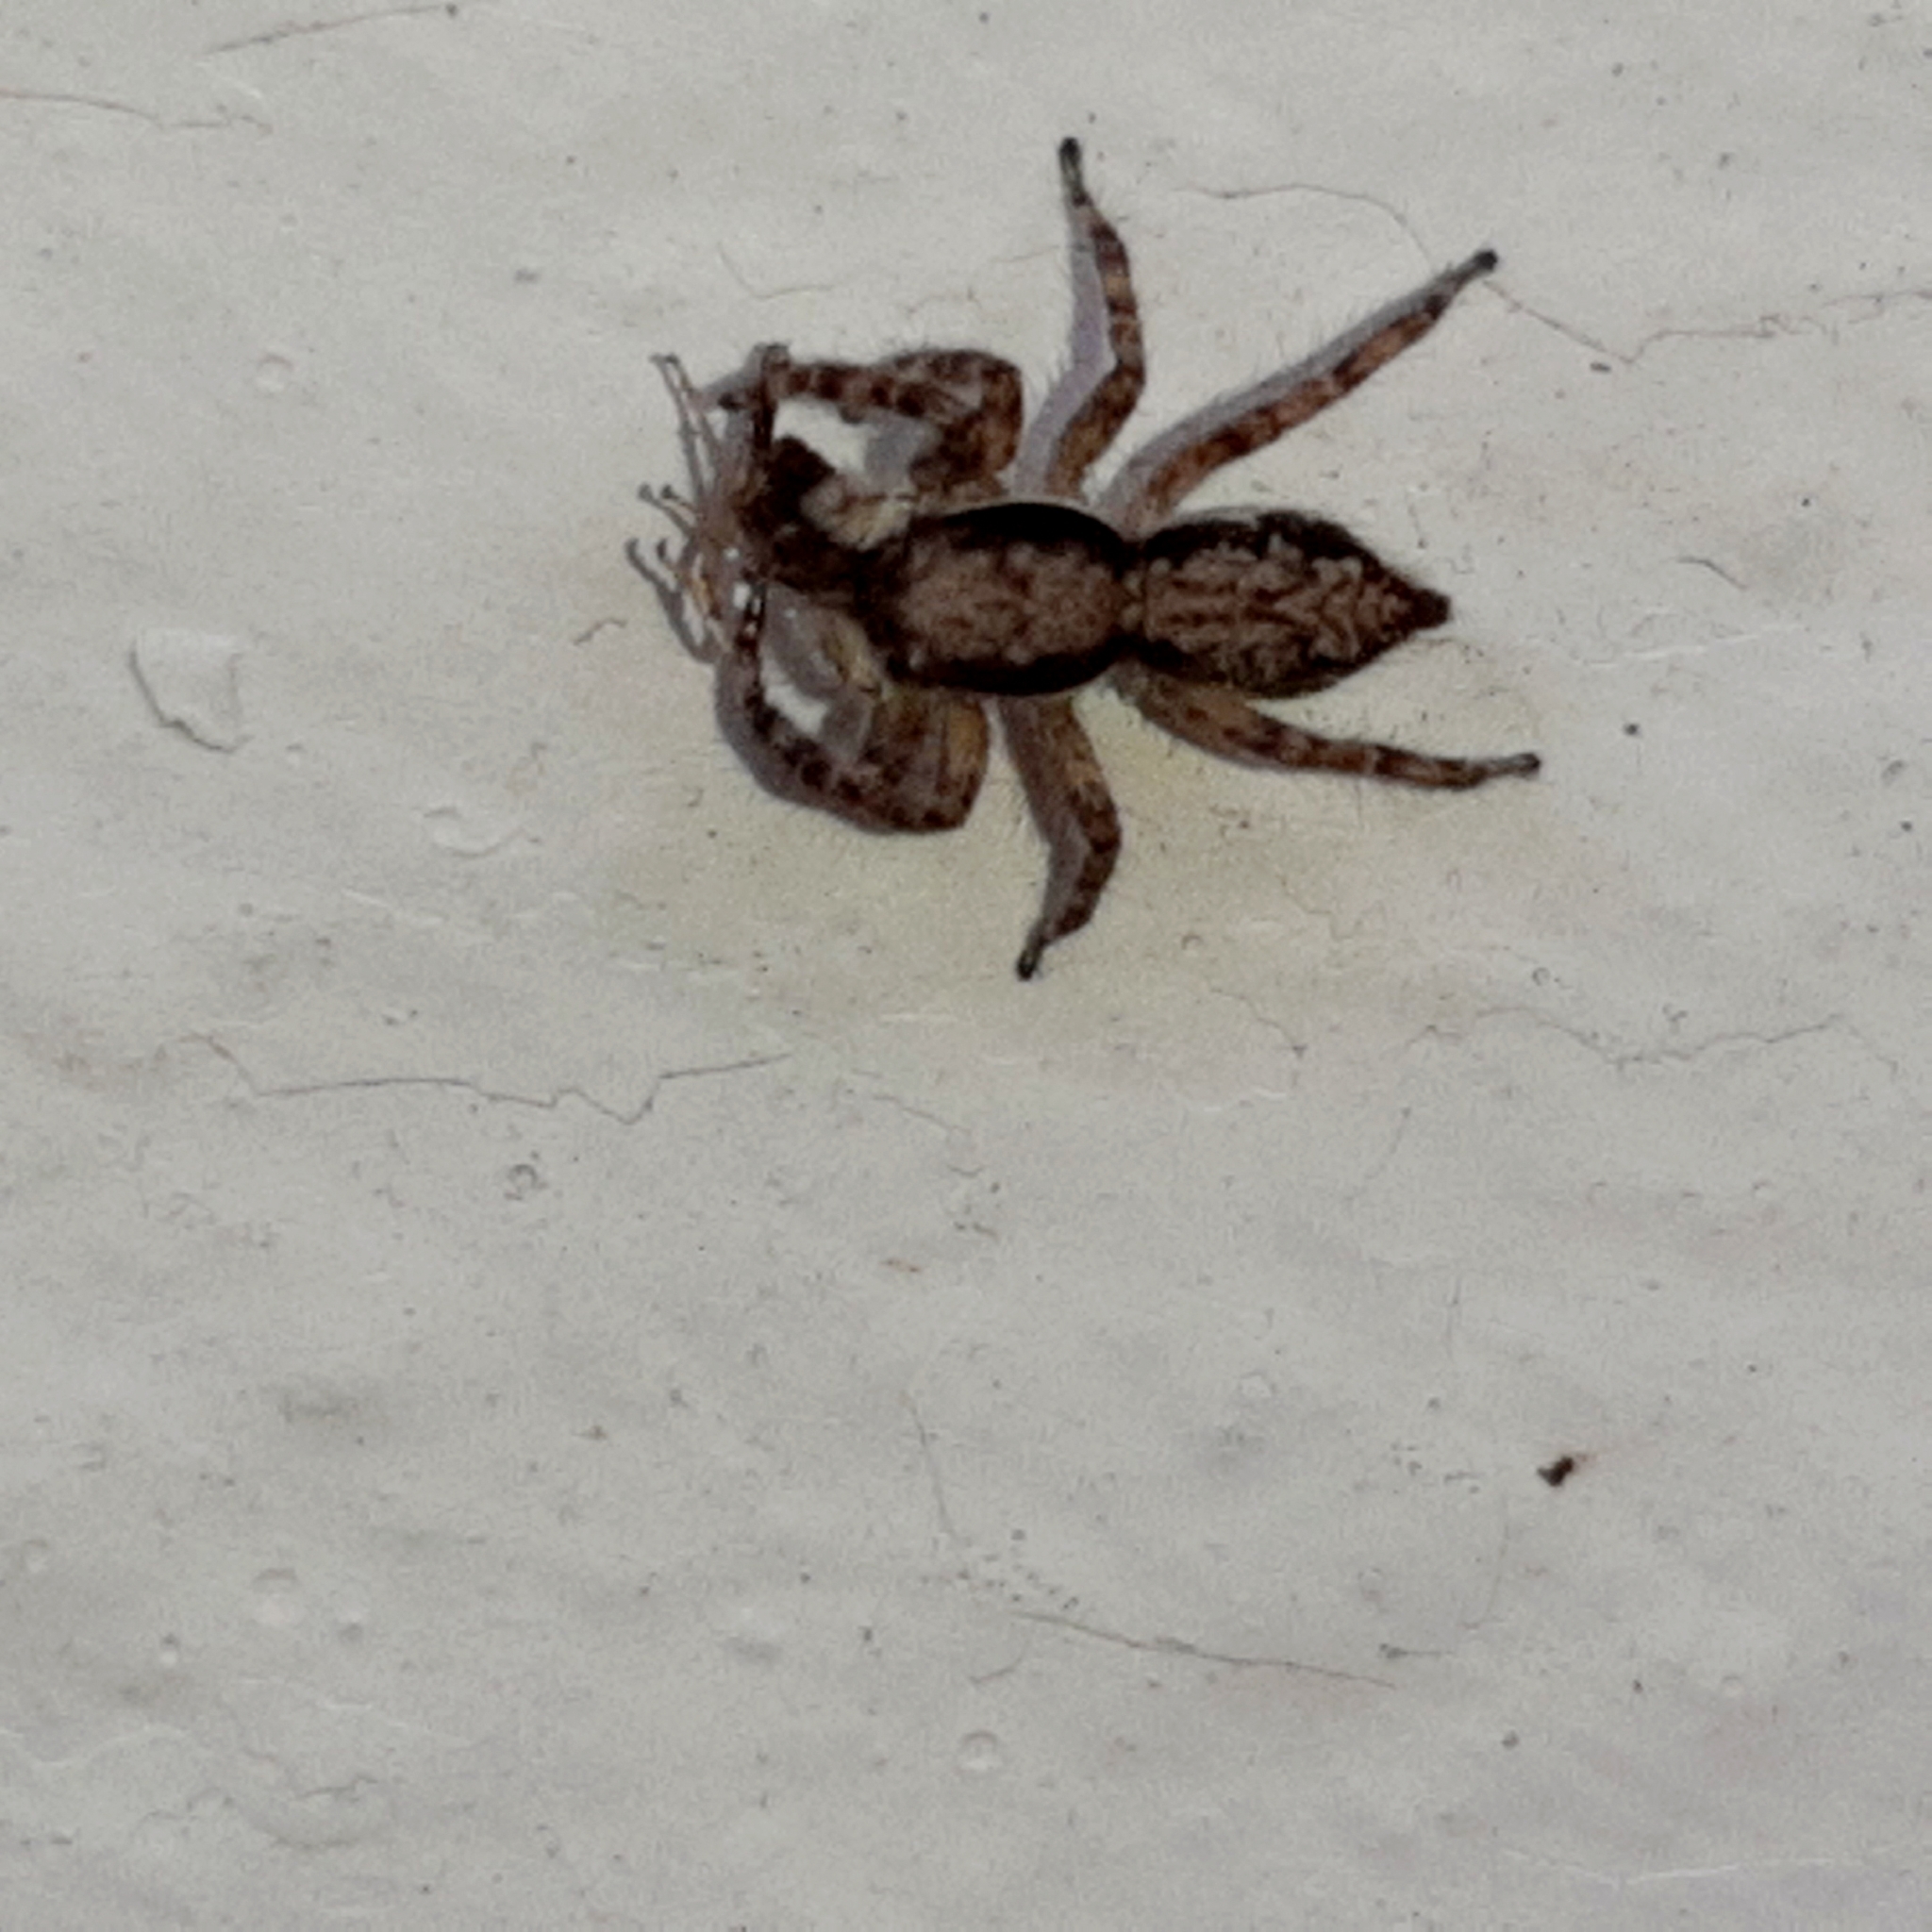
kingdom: Animalia
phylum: Arthropoda
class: Arachnida
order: Araneae
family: Salticidae
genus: Menemerus
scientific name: Menemerus bivittatus
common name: Gray wall jumper
